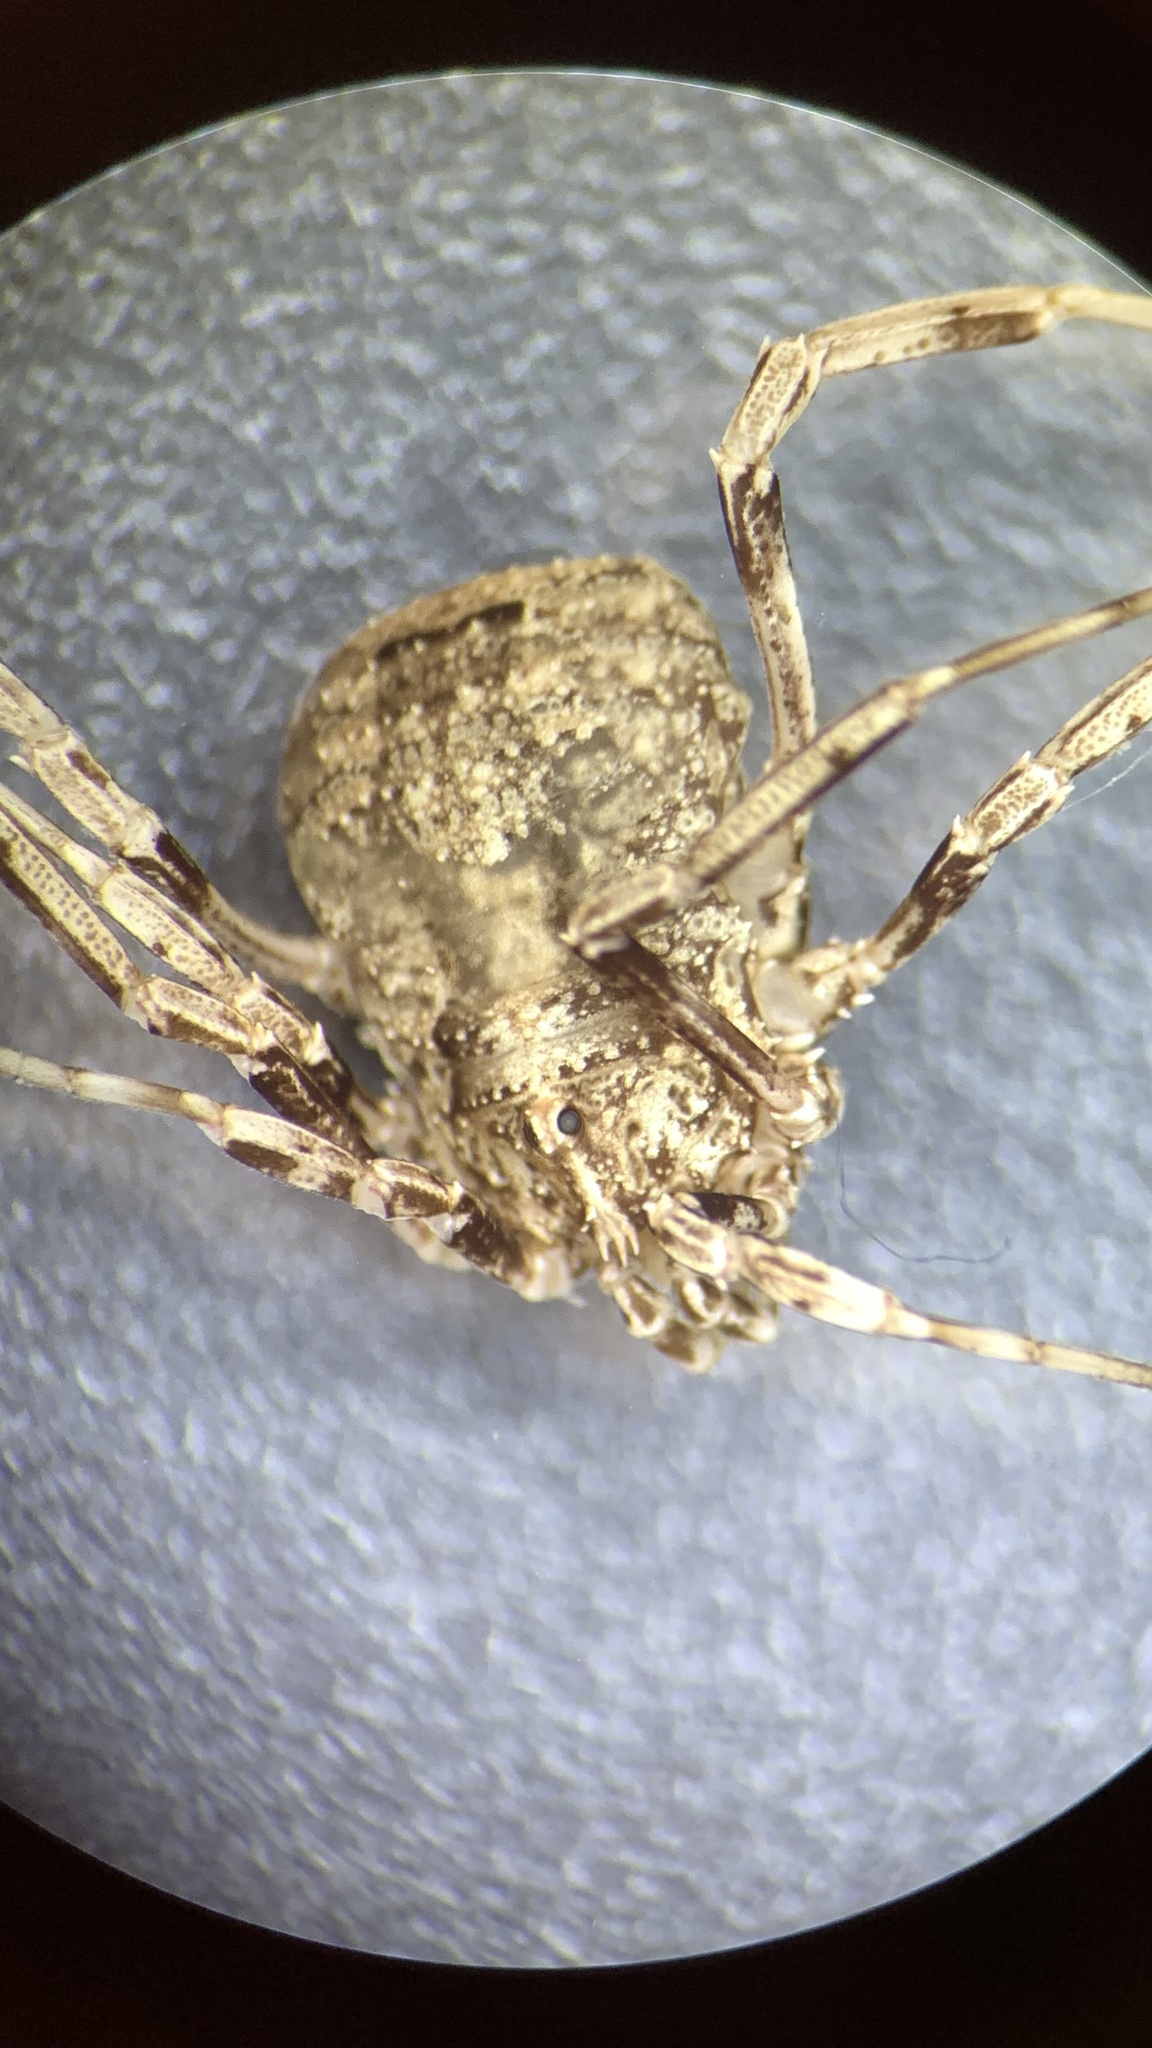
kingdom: Animalia
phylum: Arthropoda
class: Arachnida
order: Opiliones
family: Phalangiidae
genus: Odiellus
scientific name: Odiellus spinosus
